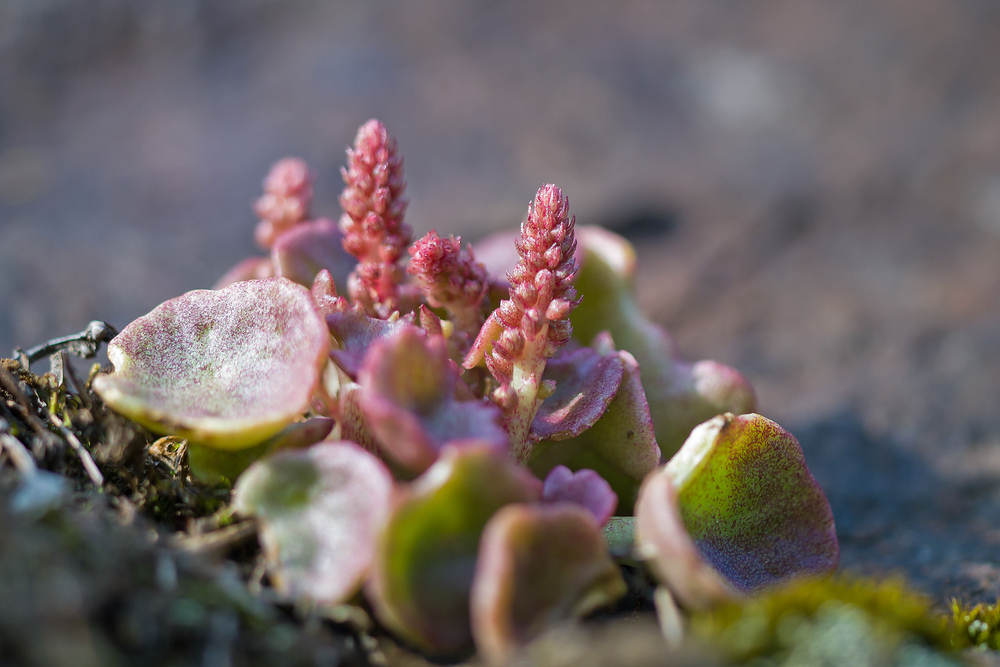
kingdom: Plantae
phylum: Tracheophyta
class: Magnoliopsida
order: Saxifragales
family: Crassulaceae
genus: Umbilicus
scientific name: Umbilicus rupestris
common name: Navelwort
